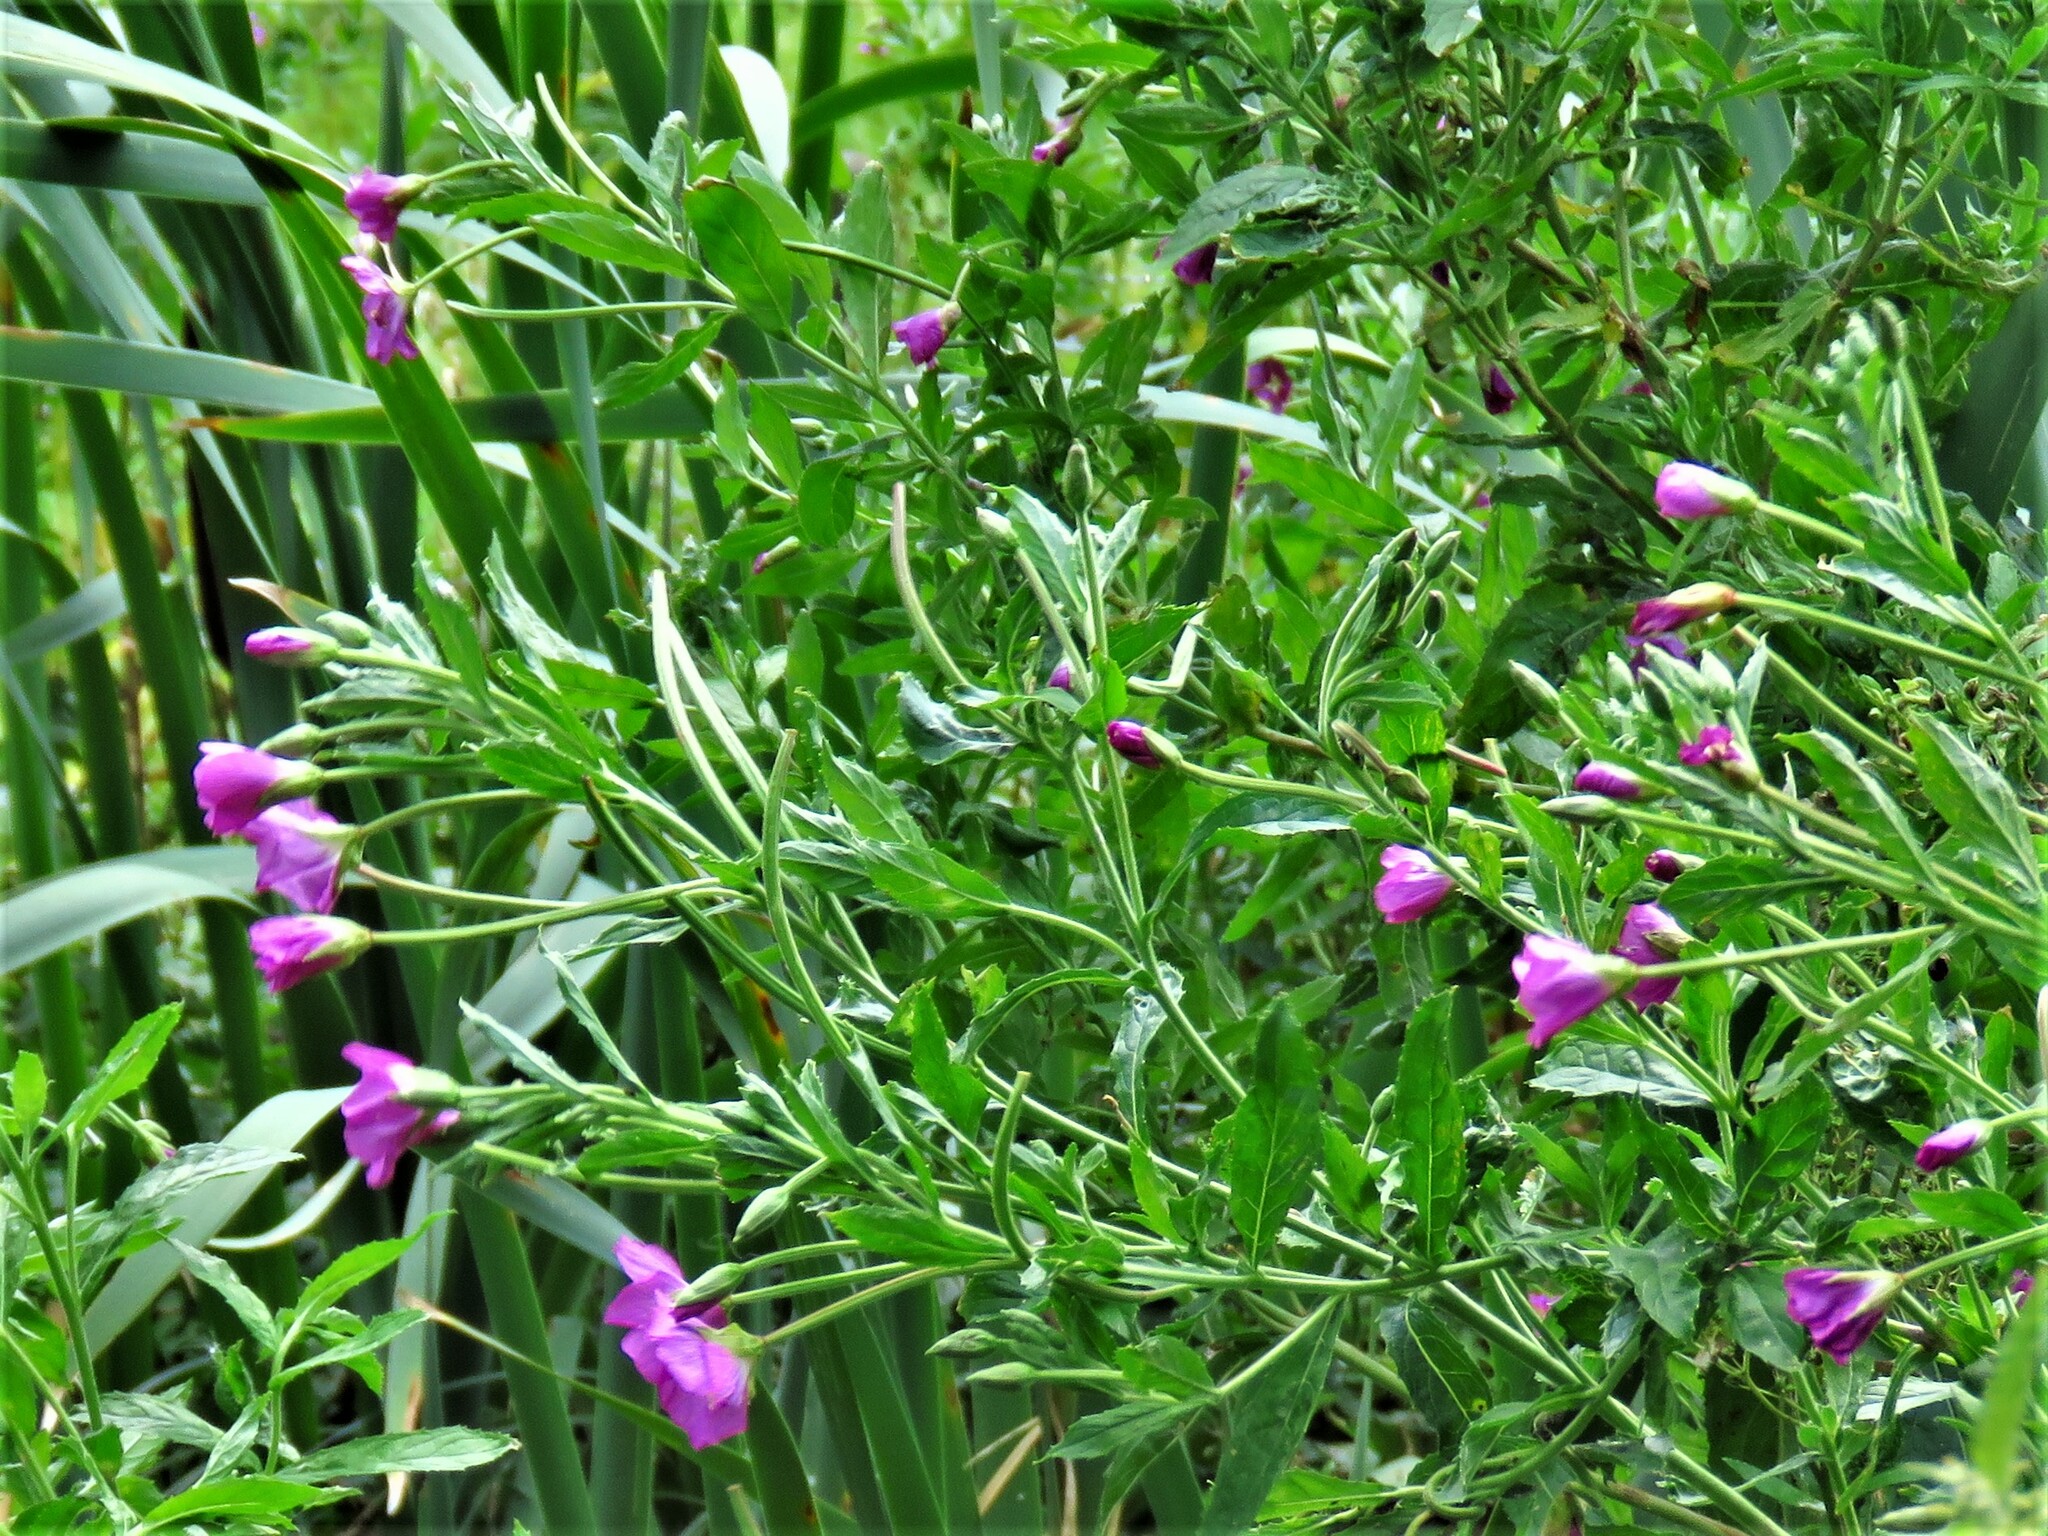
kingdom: Plantae
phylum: Tracheophyta
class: Magnoliopsida
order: Myrtales
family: Onagraceae
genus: Epilobium
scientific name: Epilobium hirsutum
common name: Great willowherb
